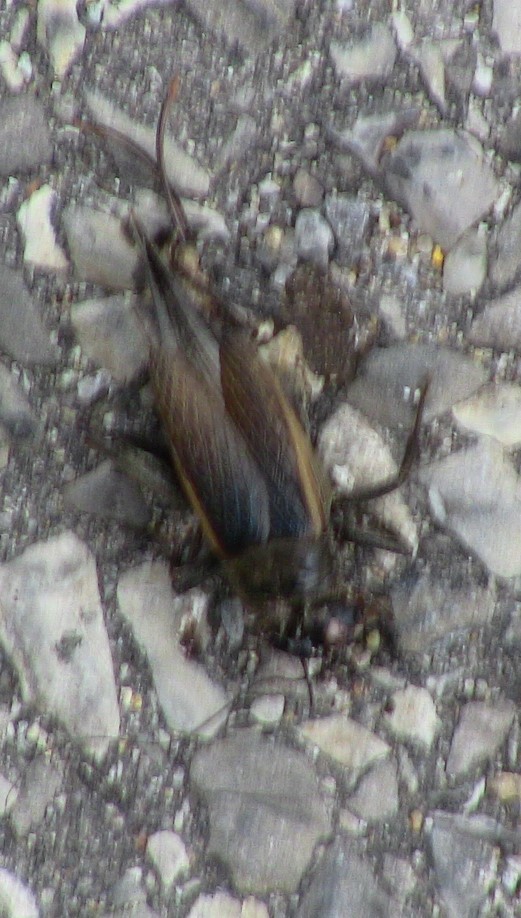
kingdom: Animalia
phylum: Arthropoda
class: Insecta
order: Orthoptera
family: Gryllidae
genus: Gryllus
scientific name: Gryllus pennsylvanicus
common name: Fall field cricket
